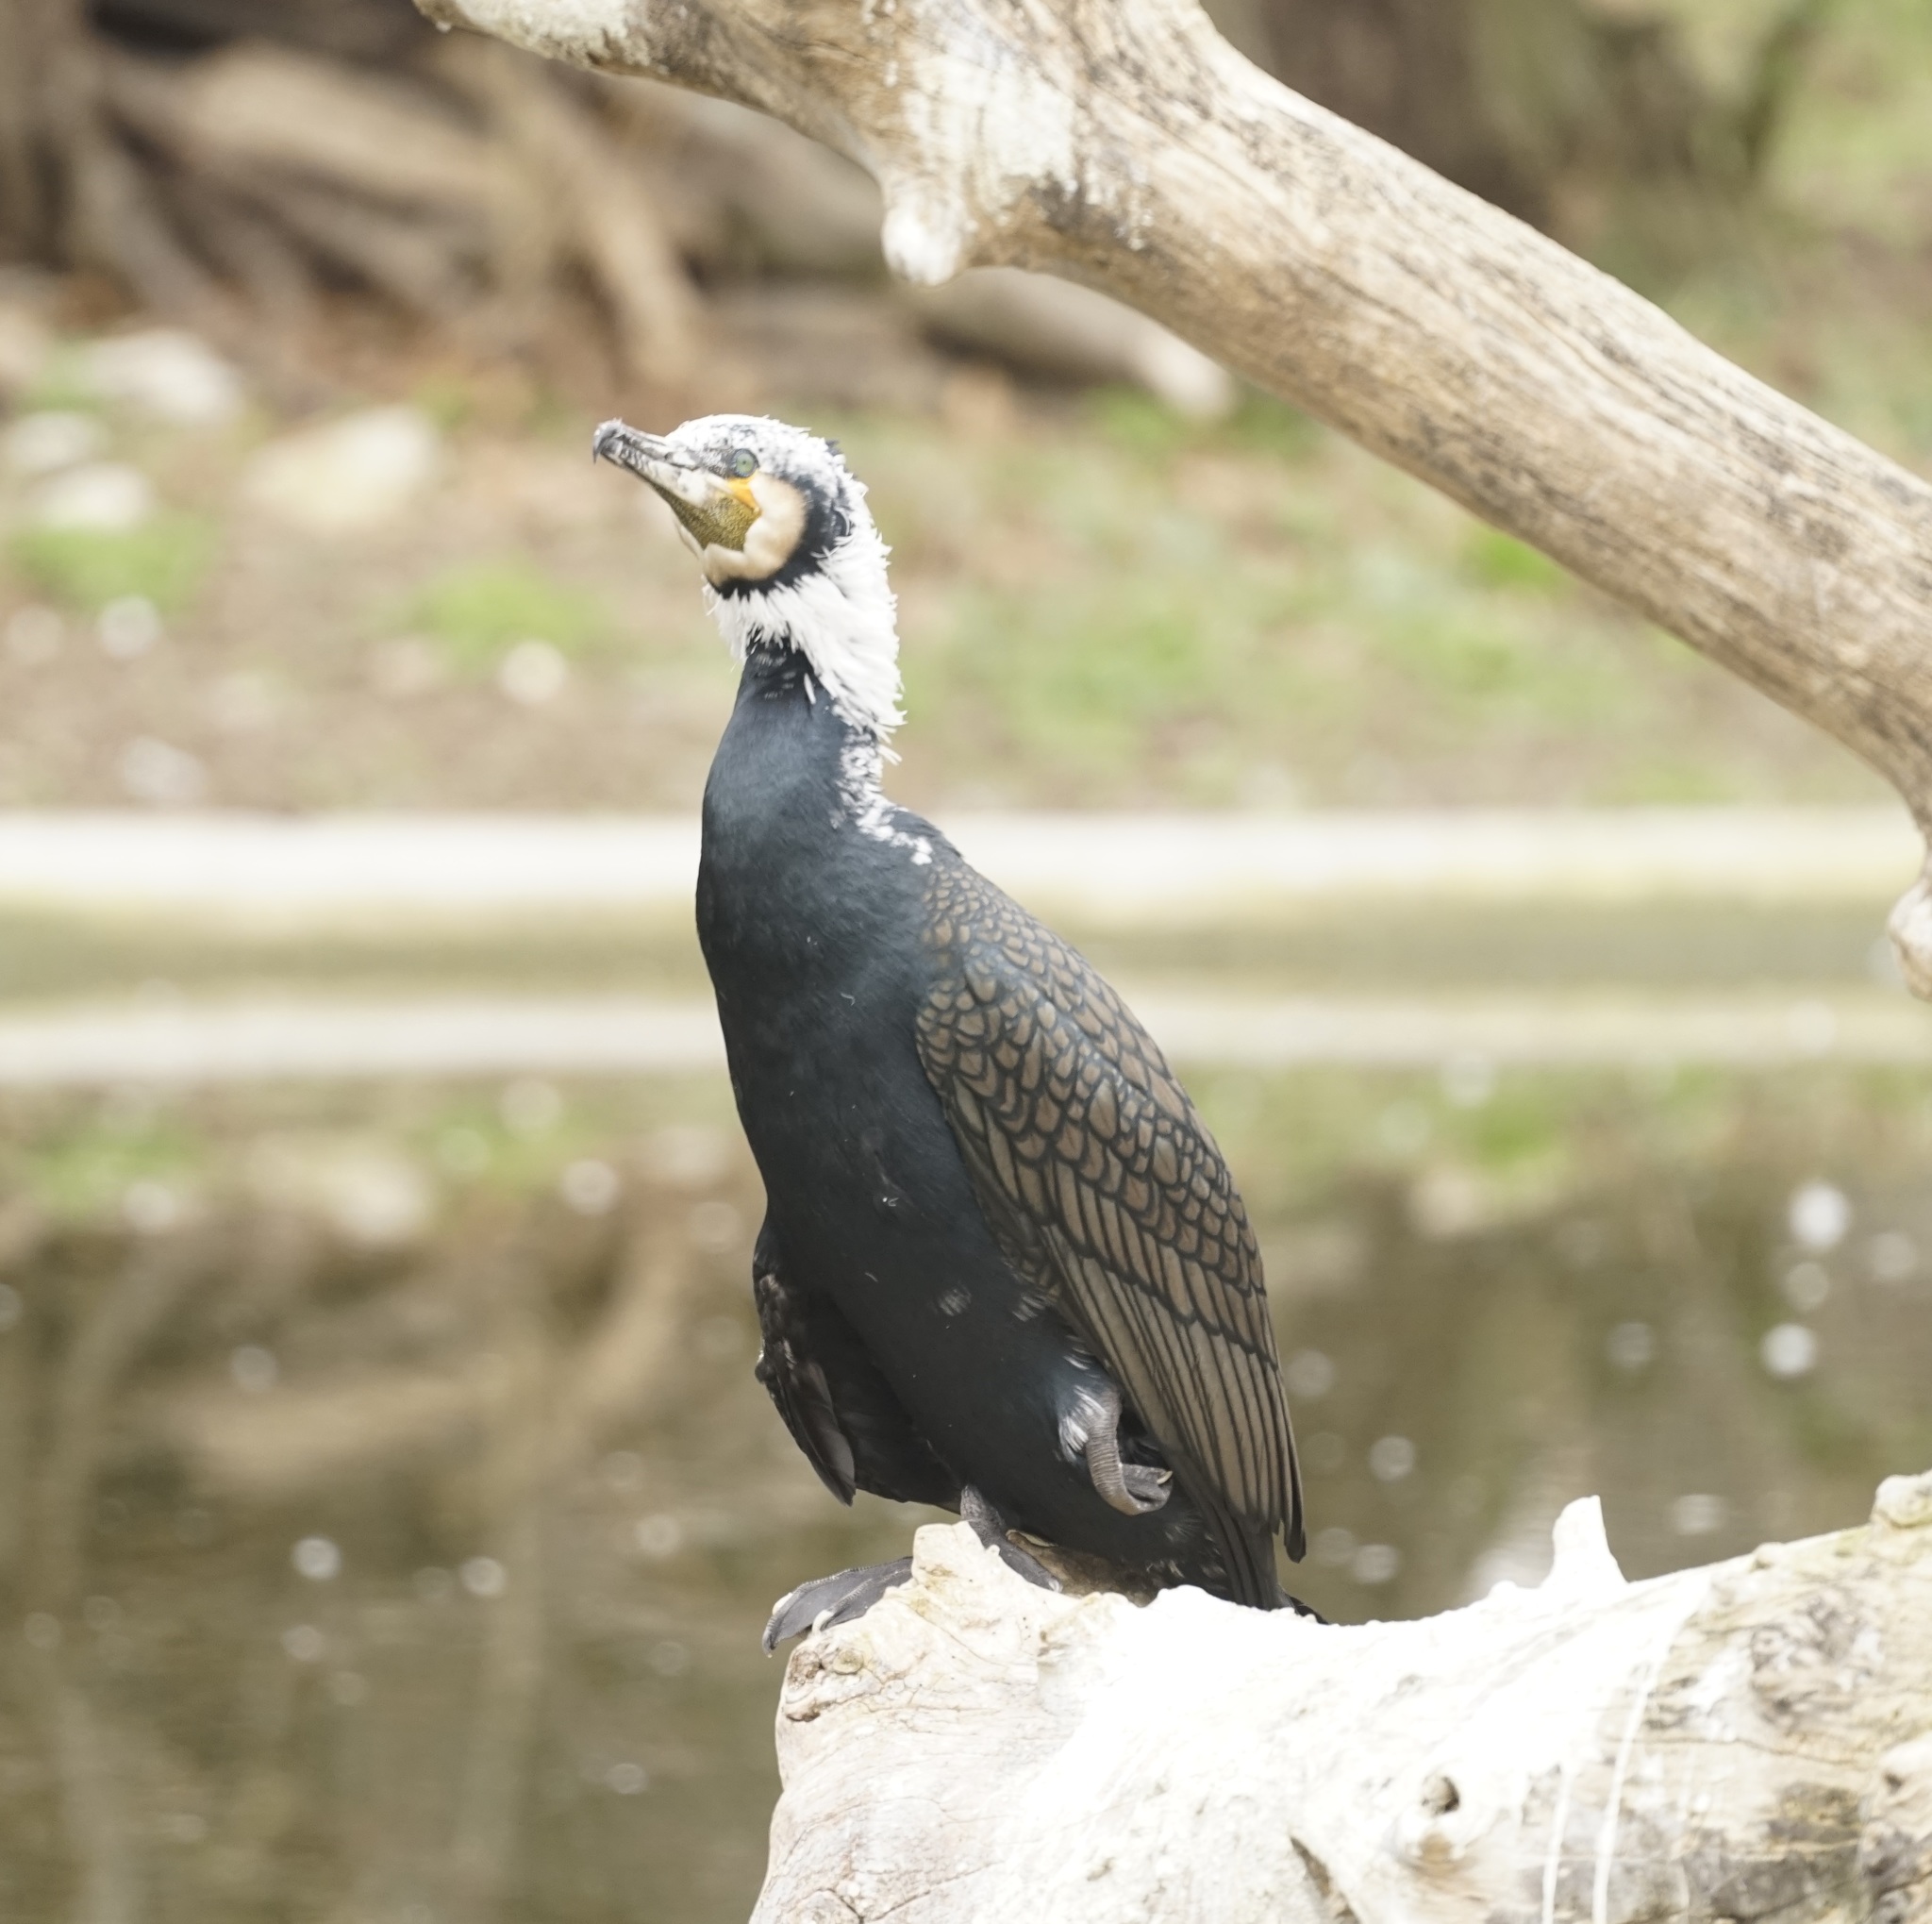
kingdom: Animalia
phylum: Chordata
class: Aves
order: Suliformes
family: Phalacrocoracidae
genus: Phalacrocorax
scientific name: Phalacrocorax carbo
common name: Great cormorant
